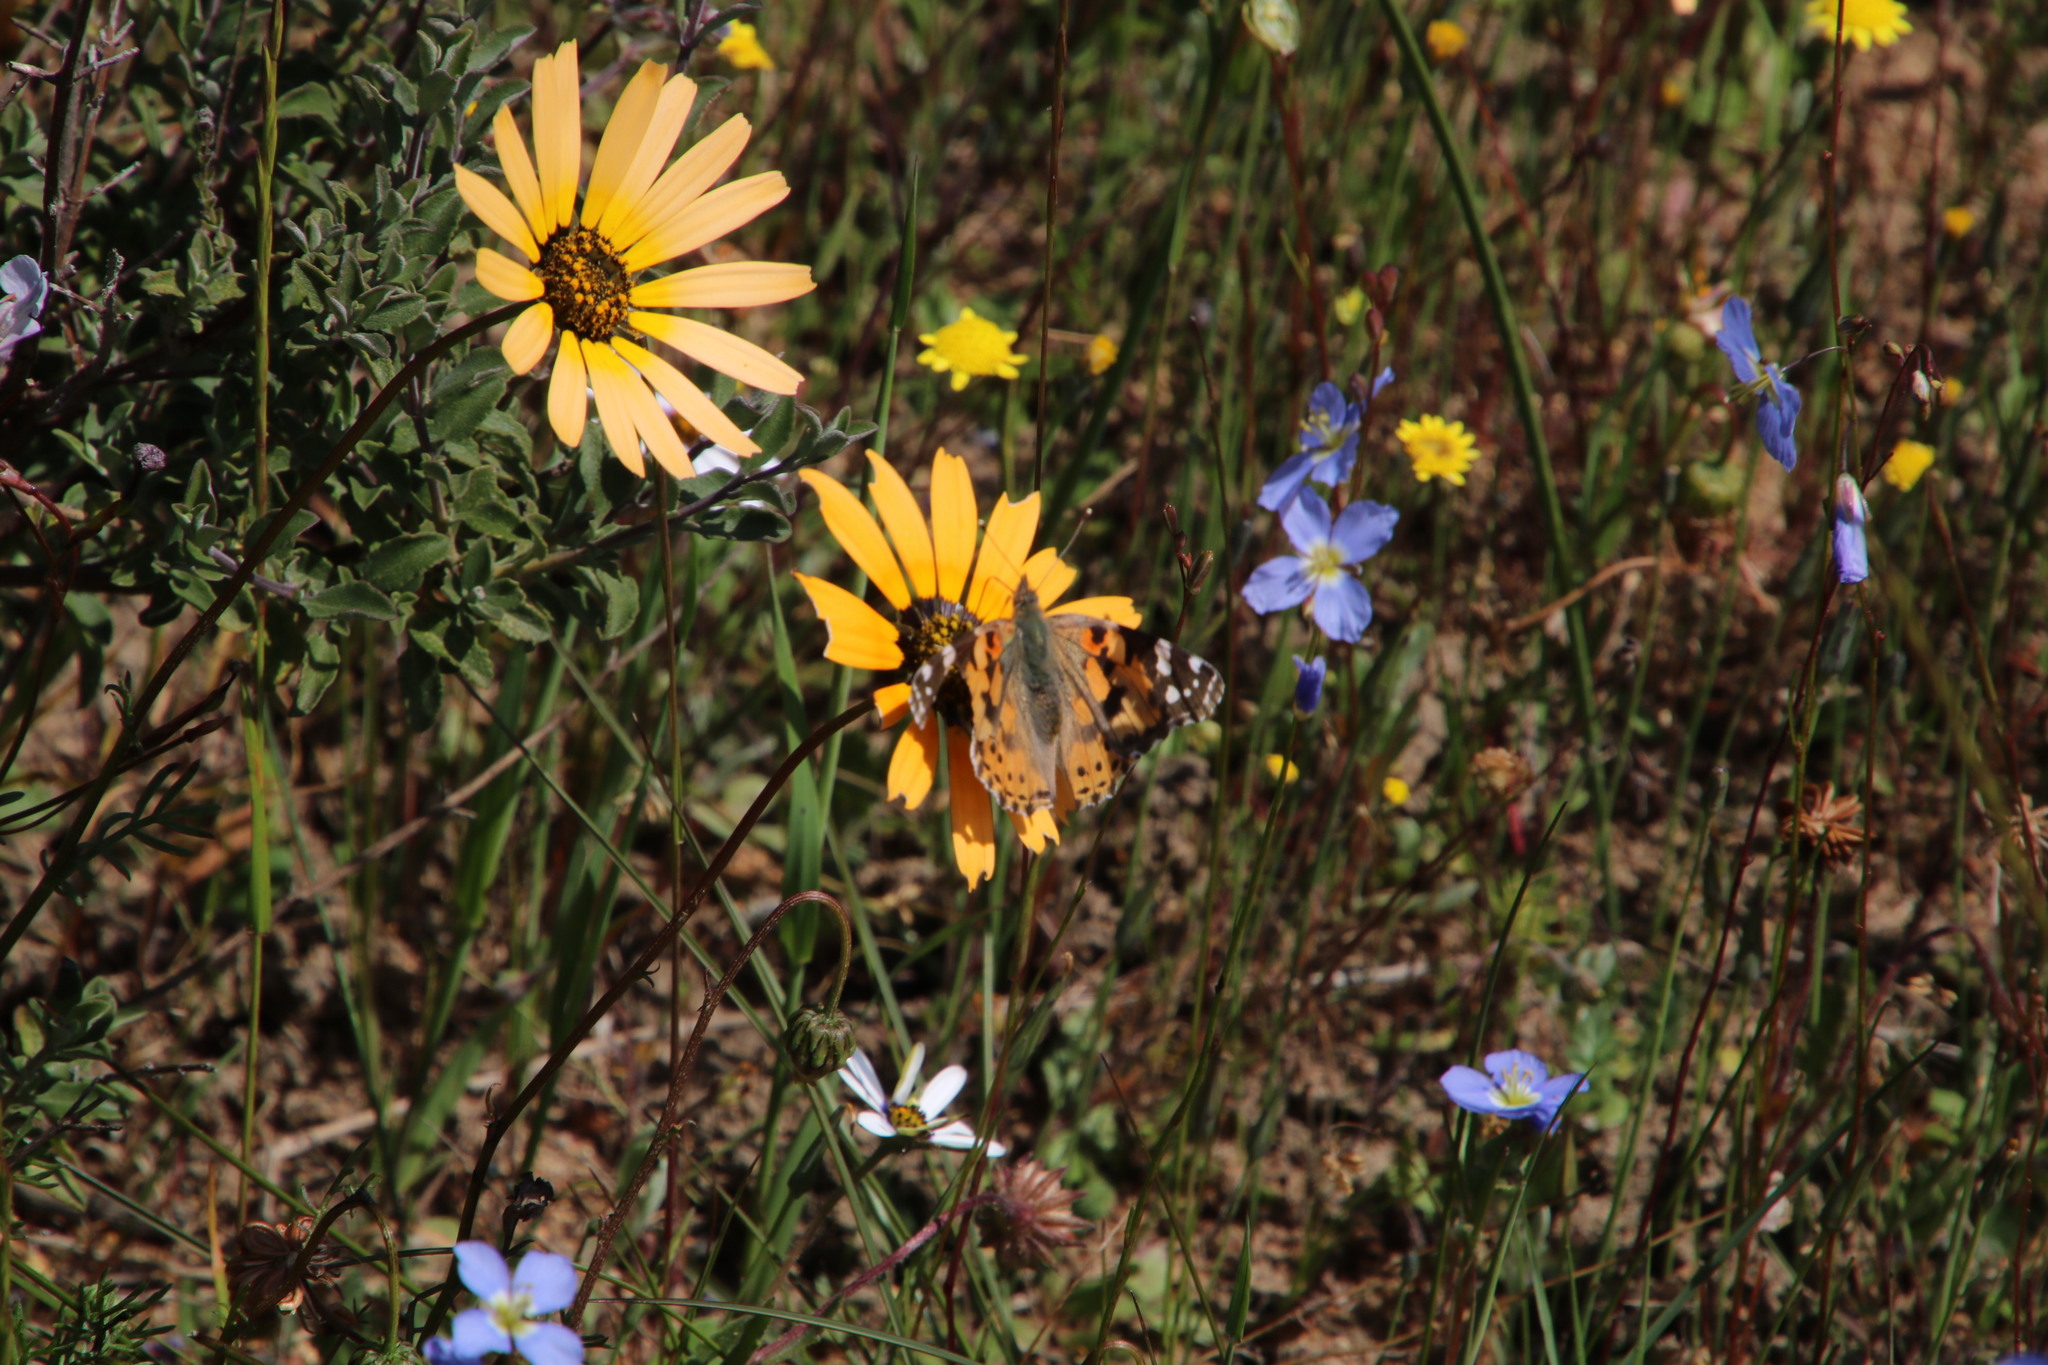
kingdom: Animalia
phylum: Arthropoda
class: Insecta
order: Lepidoptera
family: Nymphalidae
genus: Vanessa
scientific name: Vanessa cardui
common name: Painted lady
